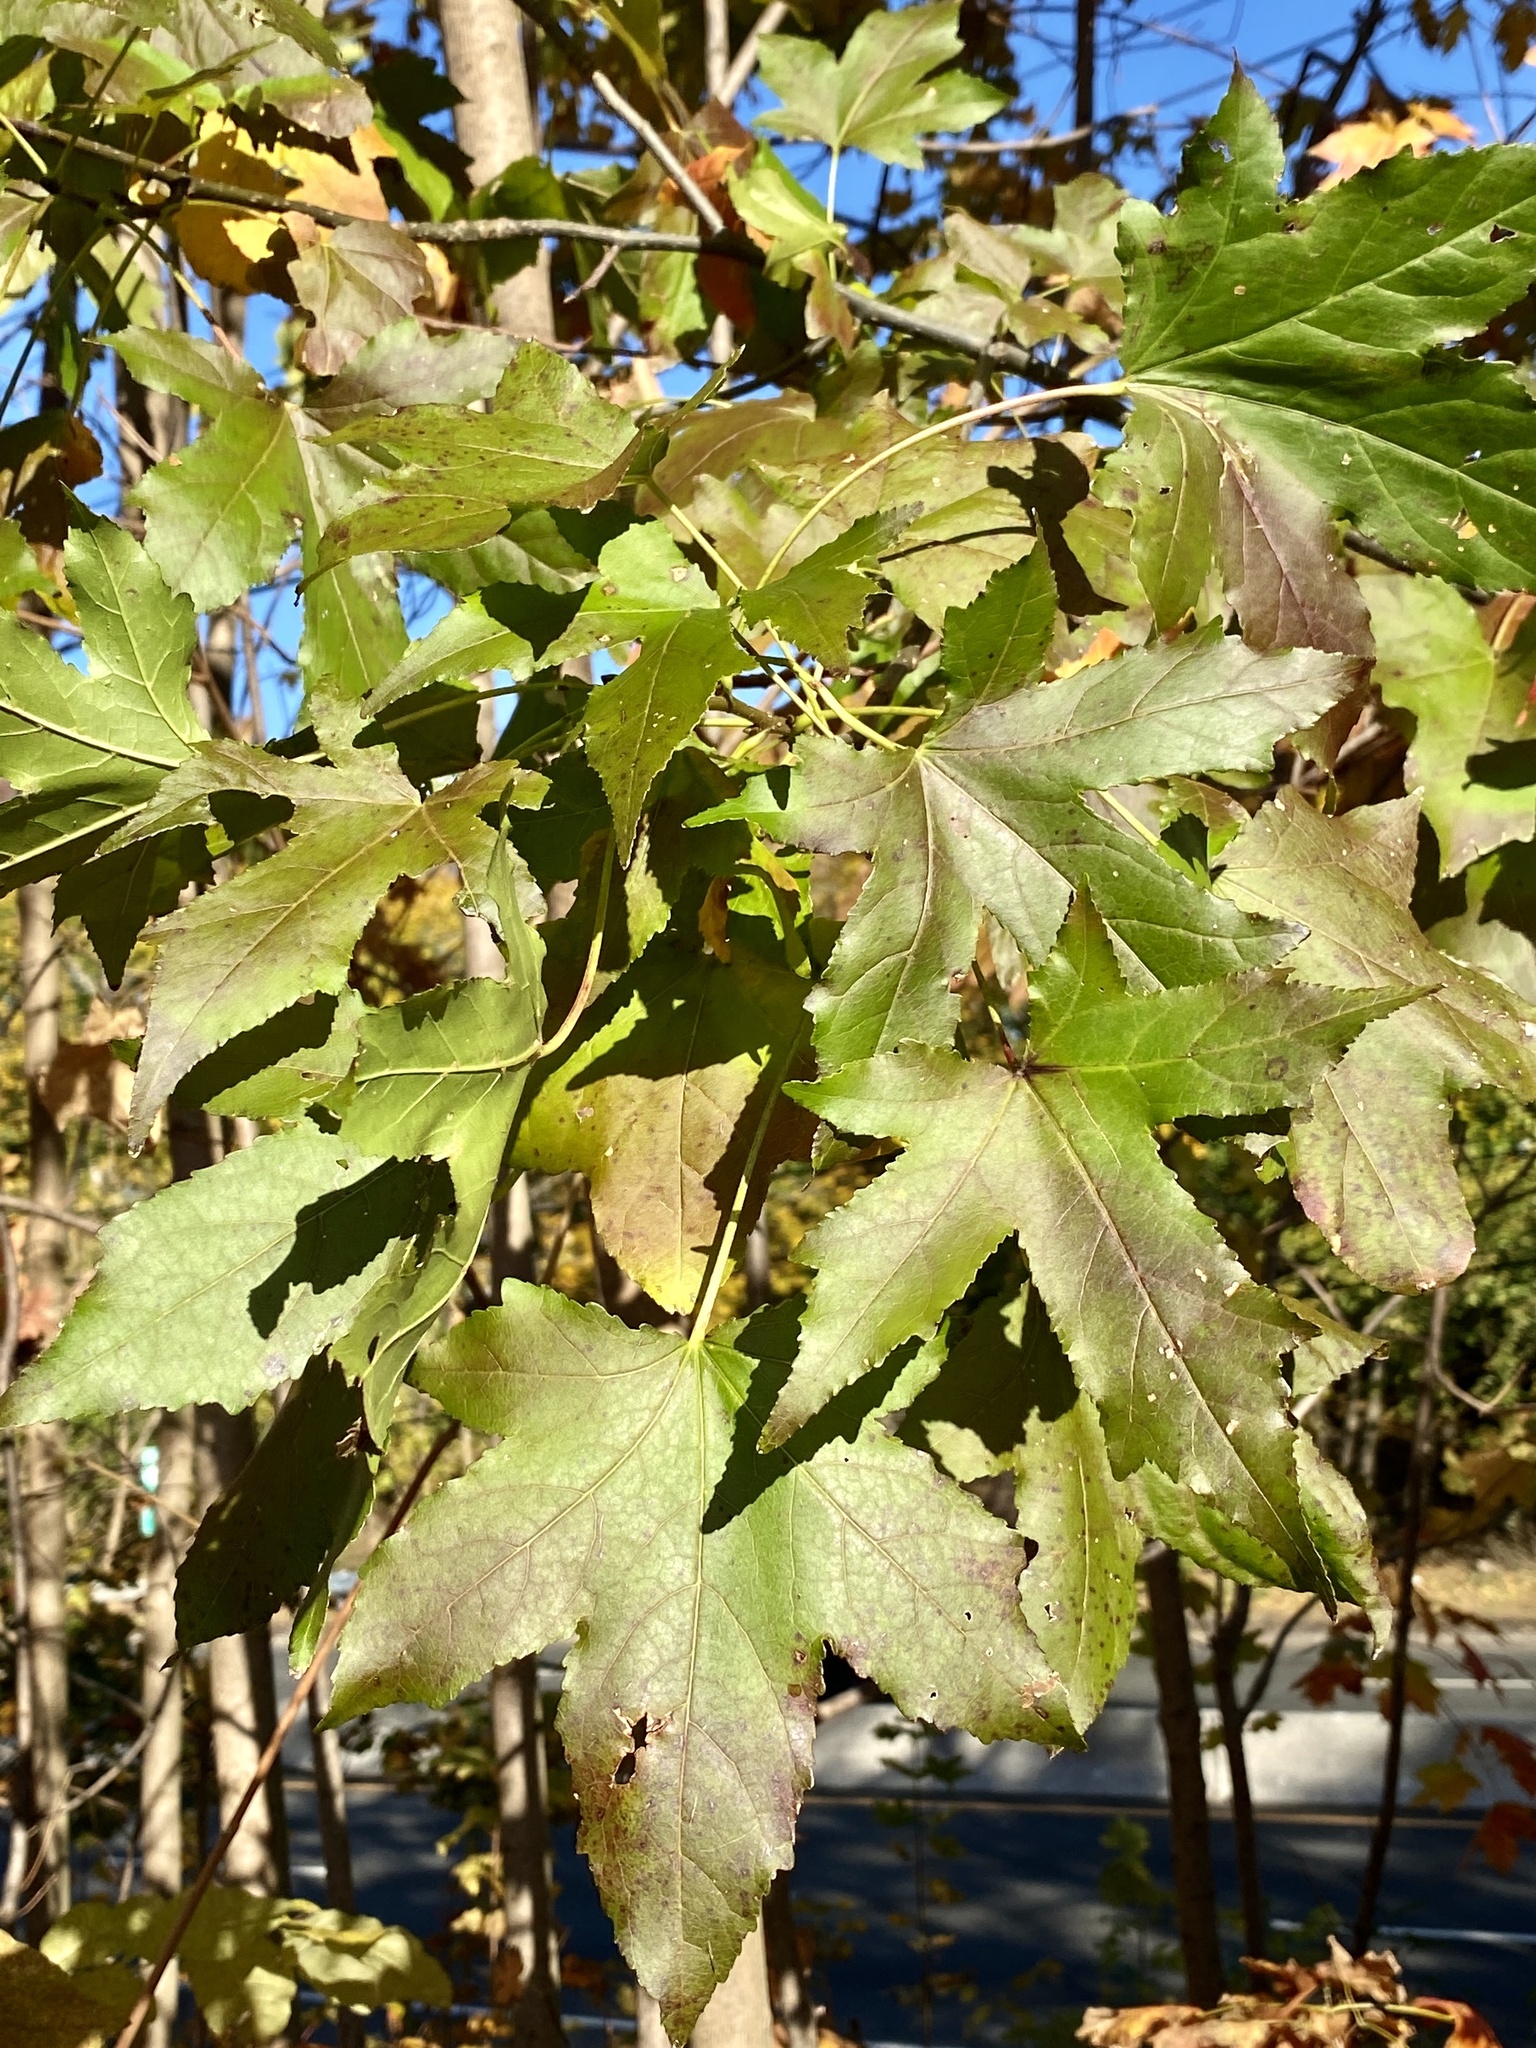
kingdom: Plantae
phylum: Tracheophyta
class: Magnoliopsida
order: Saxifragales
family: Altingiaceae
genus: Liquidambar
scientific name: Liquidambar styraciflua
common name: Sweet gum
